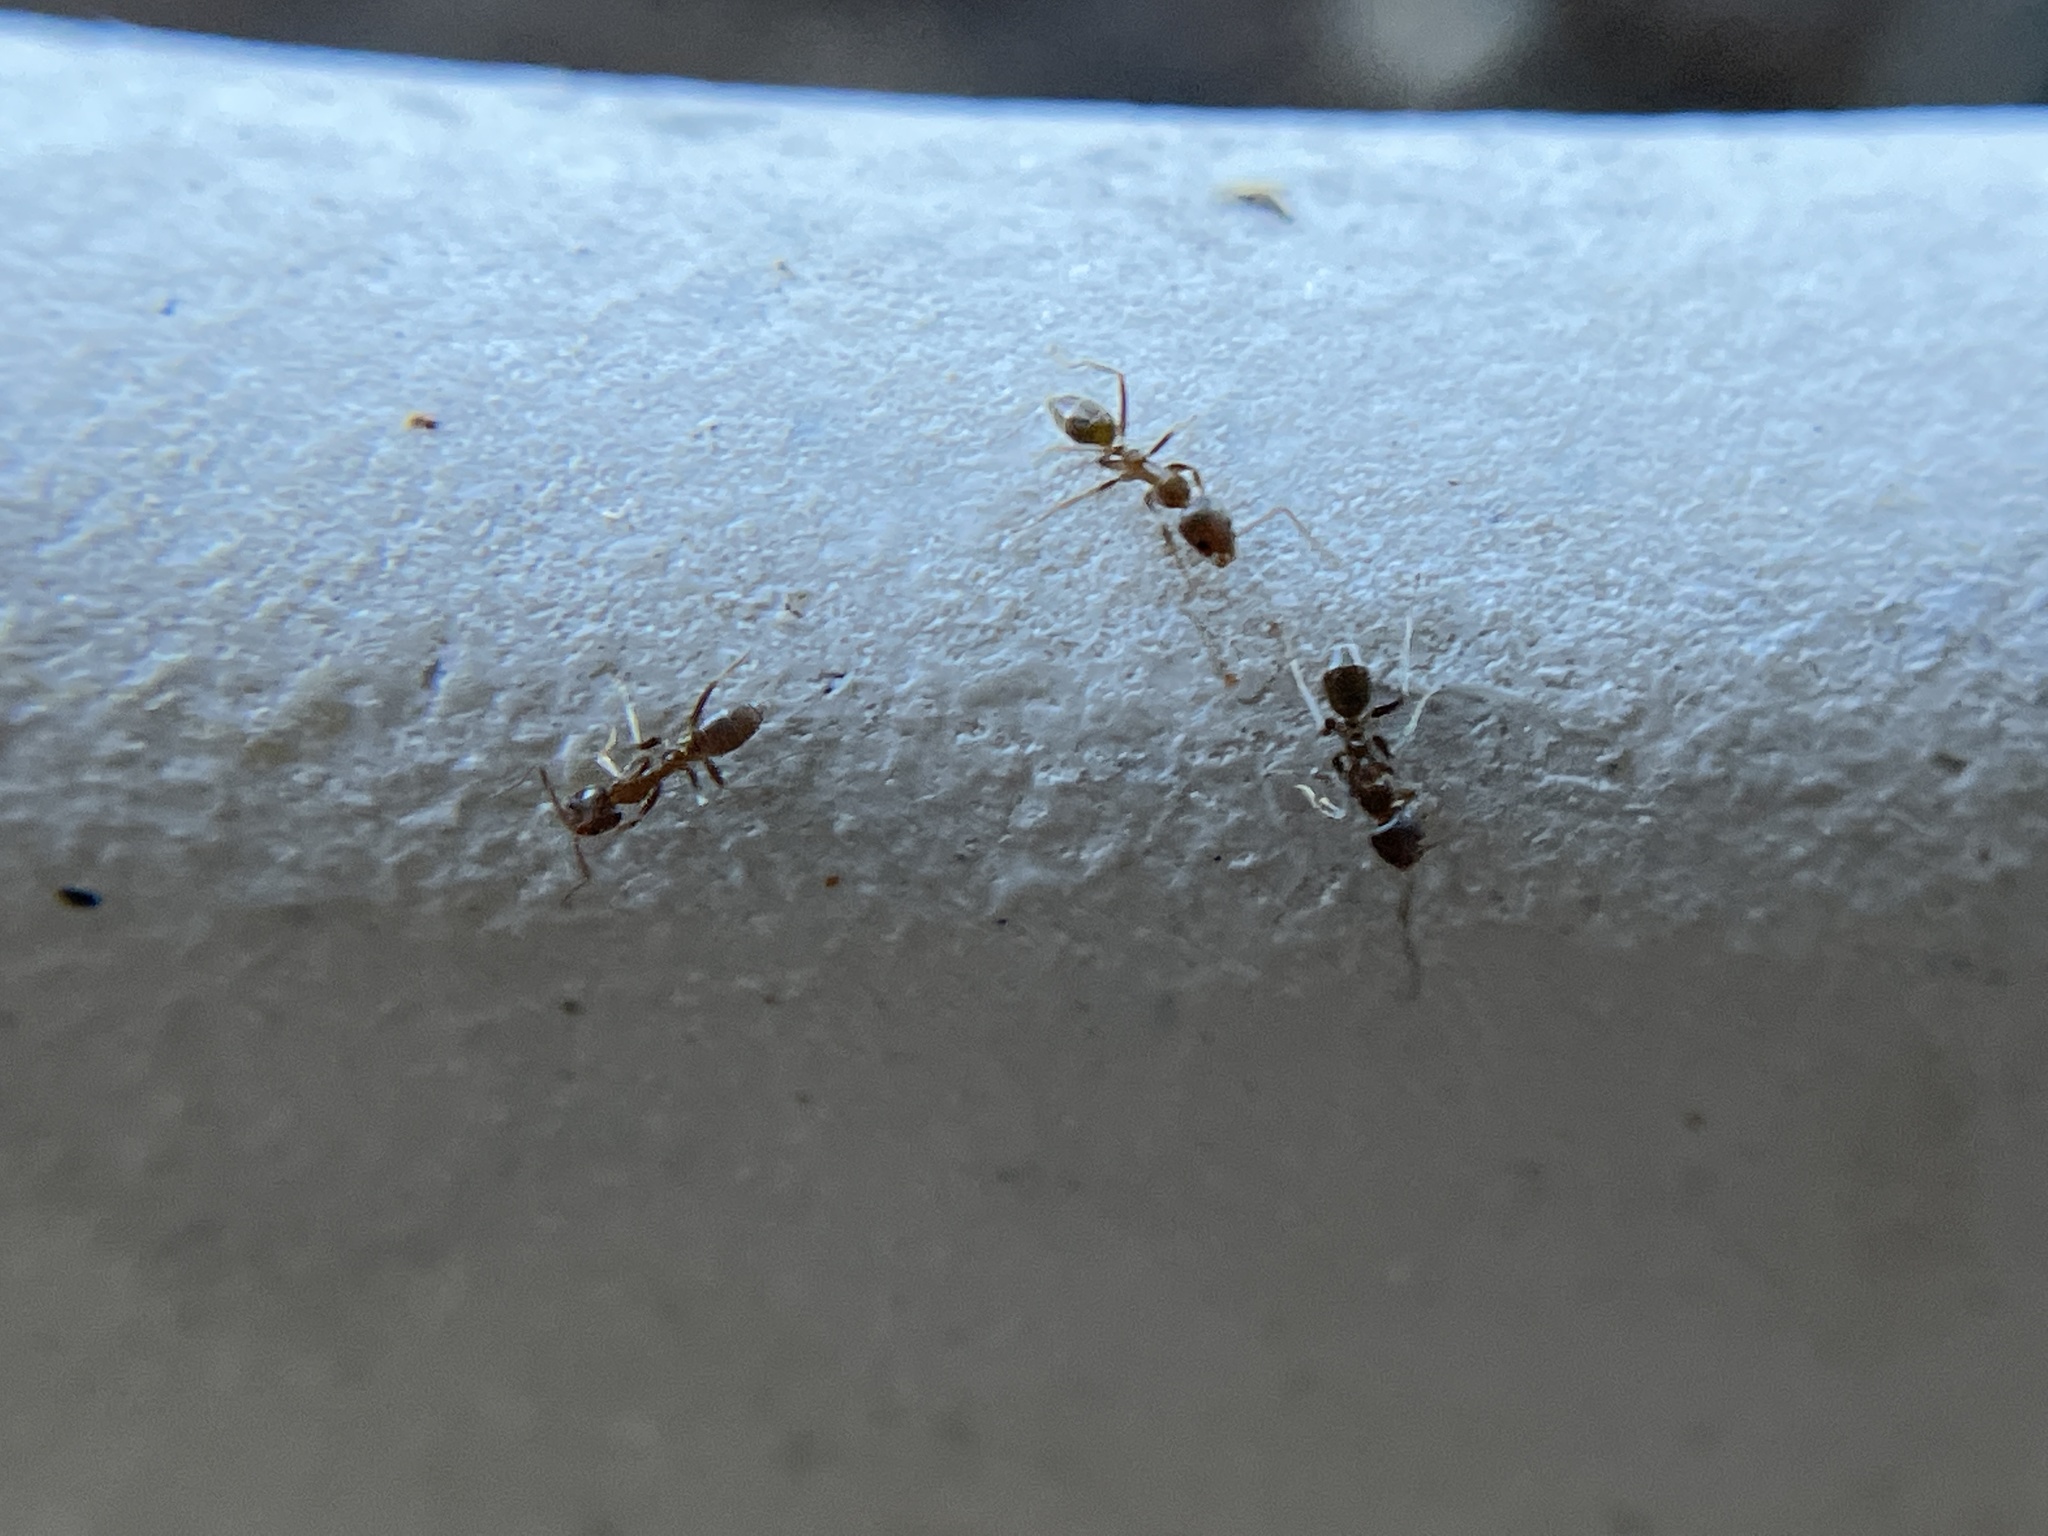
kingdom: Animalia
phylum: Arthropoda
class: Insecta
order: Hymenoptera
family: Formicidae
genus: Linepithema
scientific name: Linepithema humile
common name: Argentine ant
